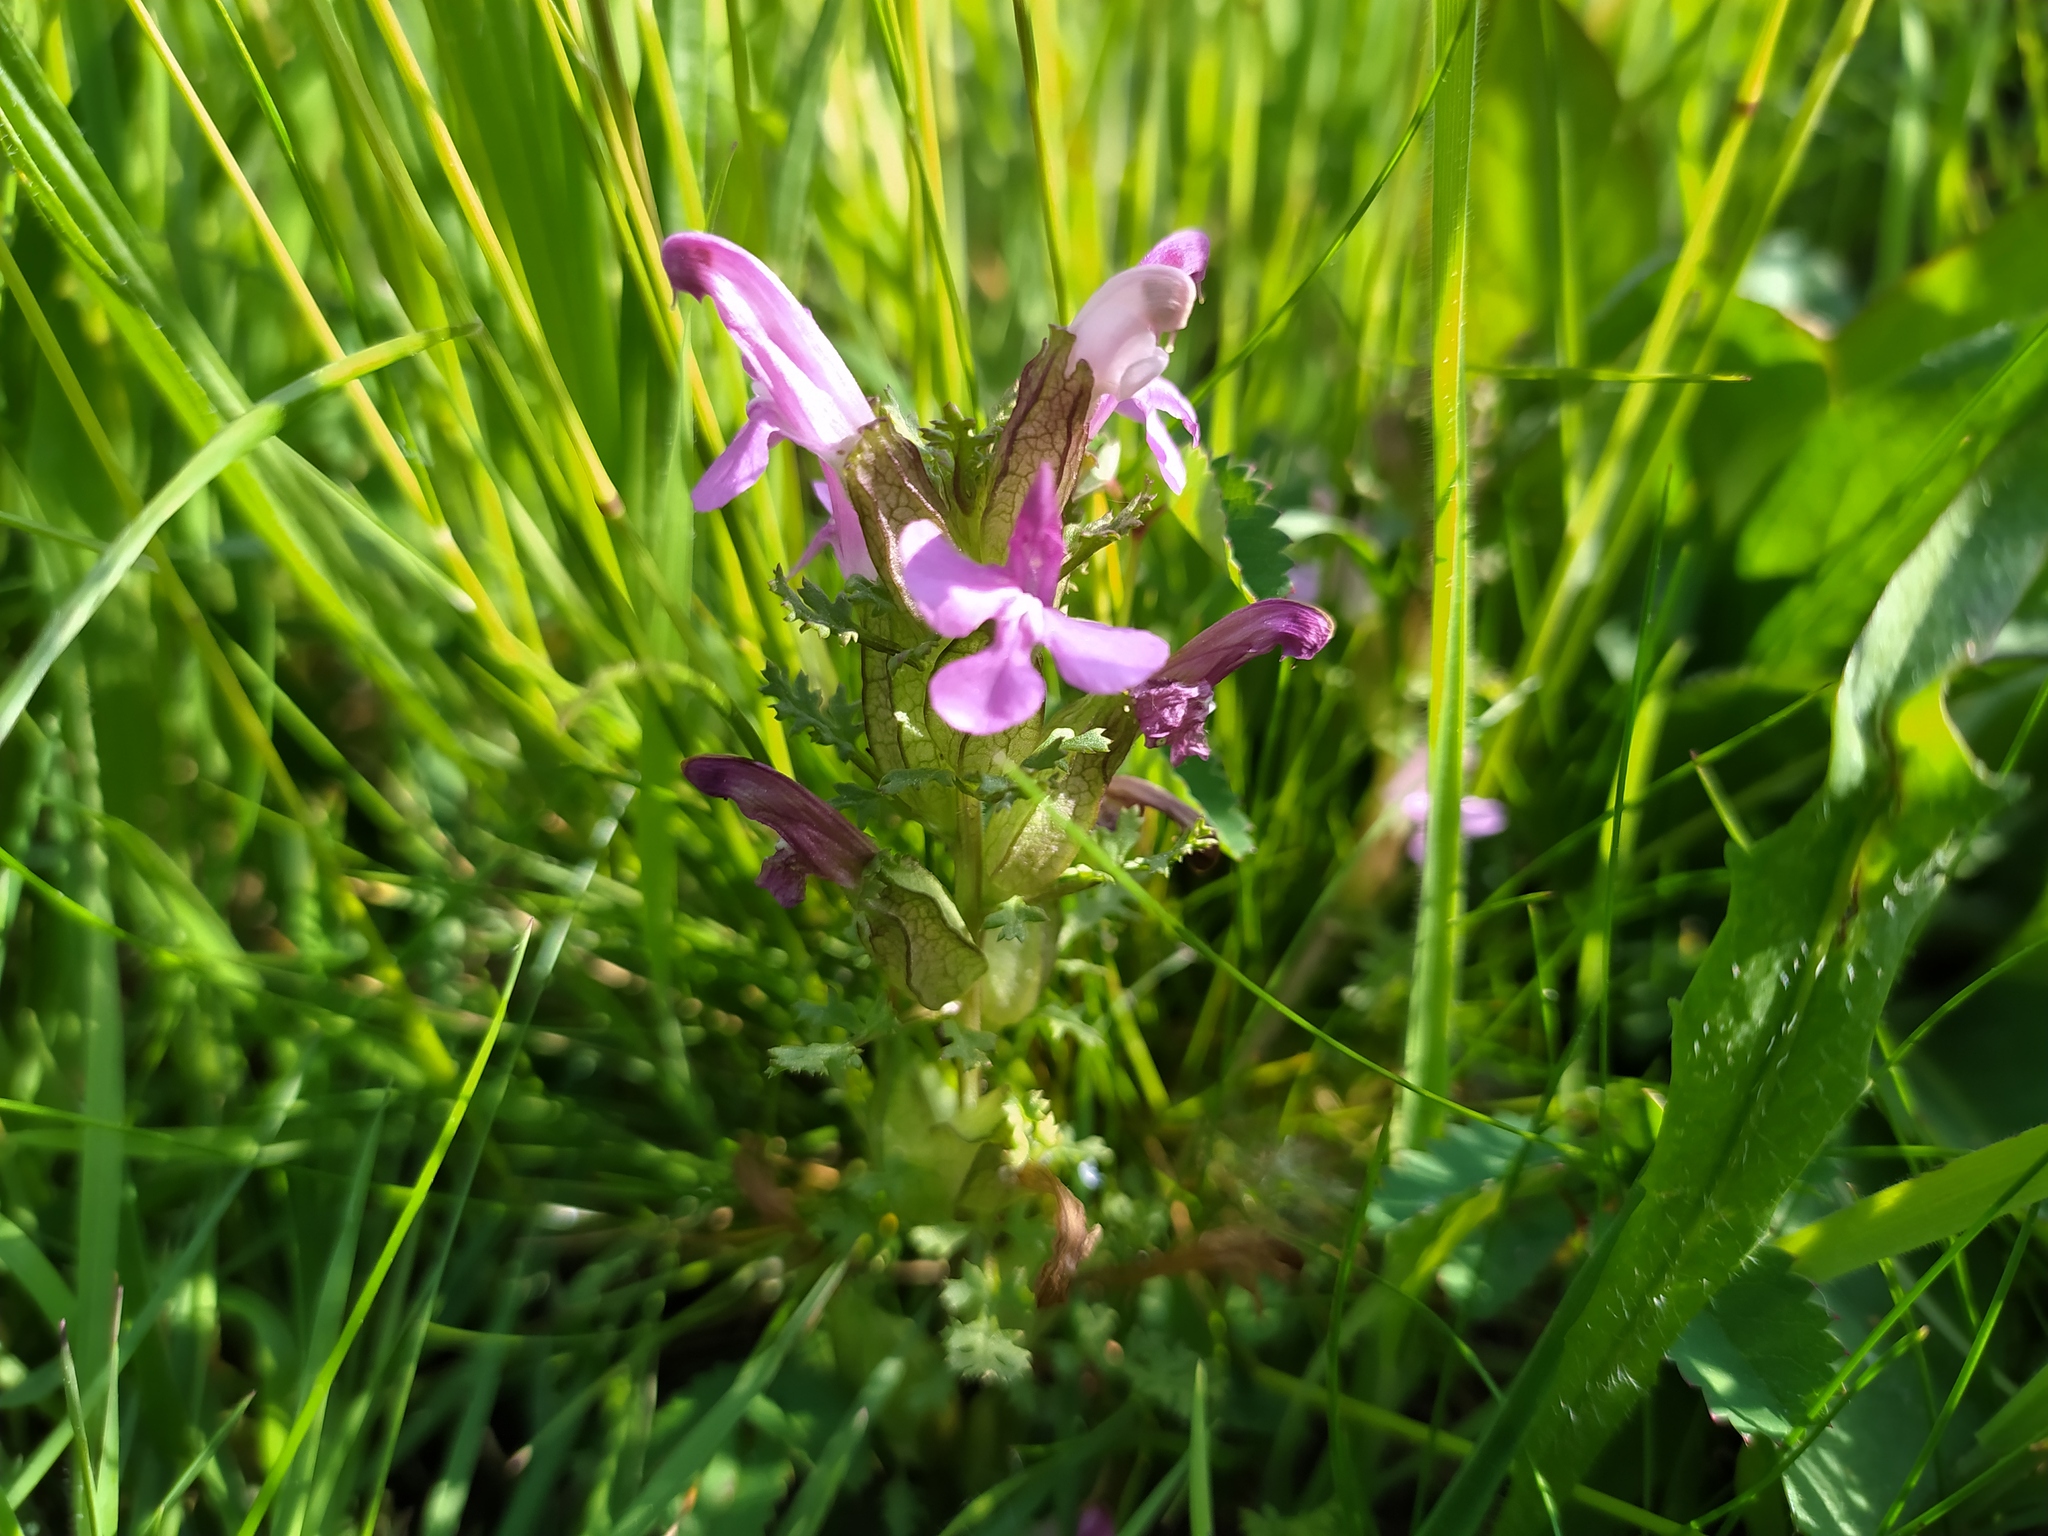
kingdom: Plantae
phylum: Tracheophyta
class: Magnoliopsida
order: Lamiales
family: Orobanchaceae
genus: Pedicularis
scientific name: Pedicularis sylvatica
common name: Lousewort
